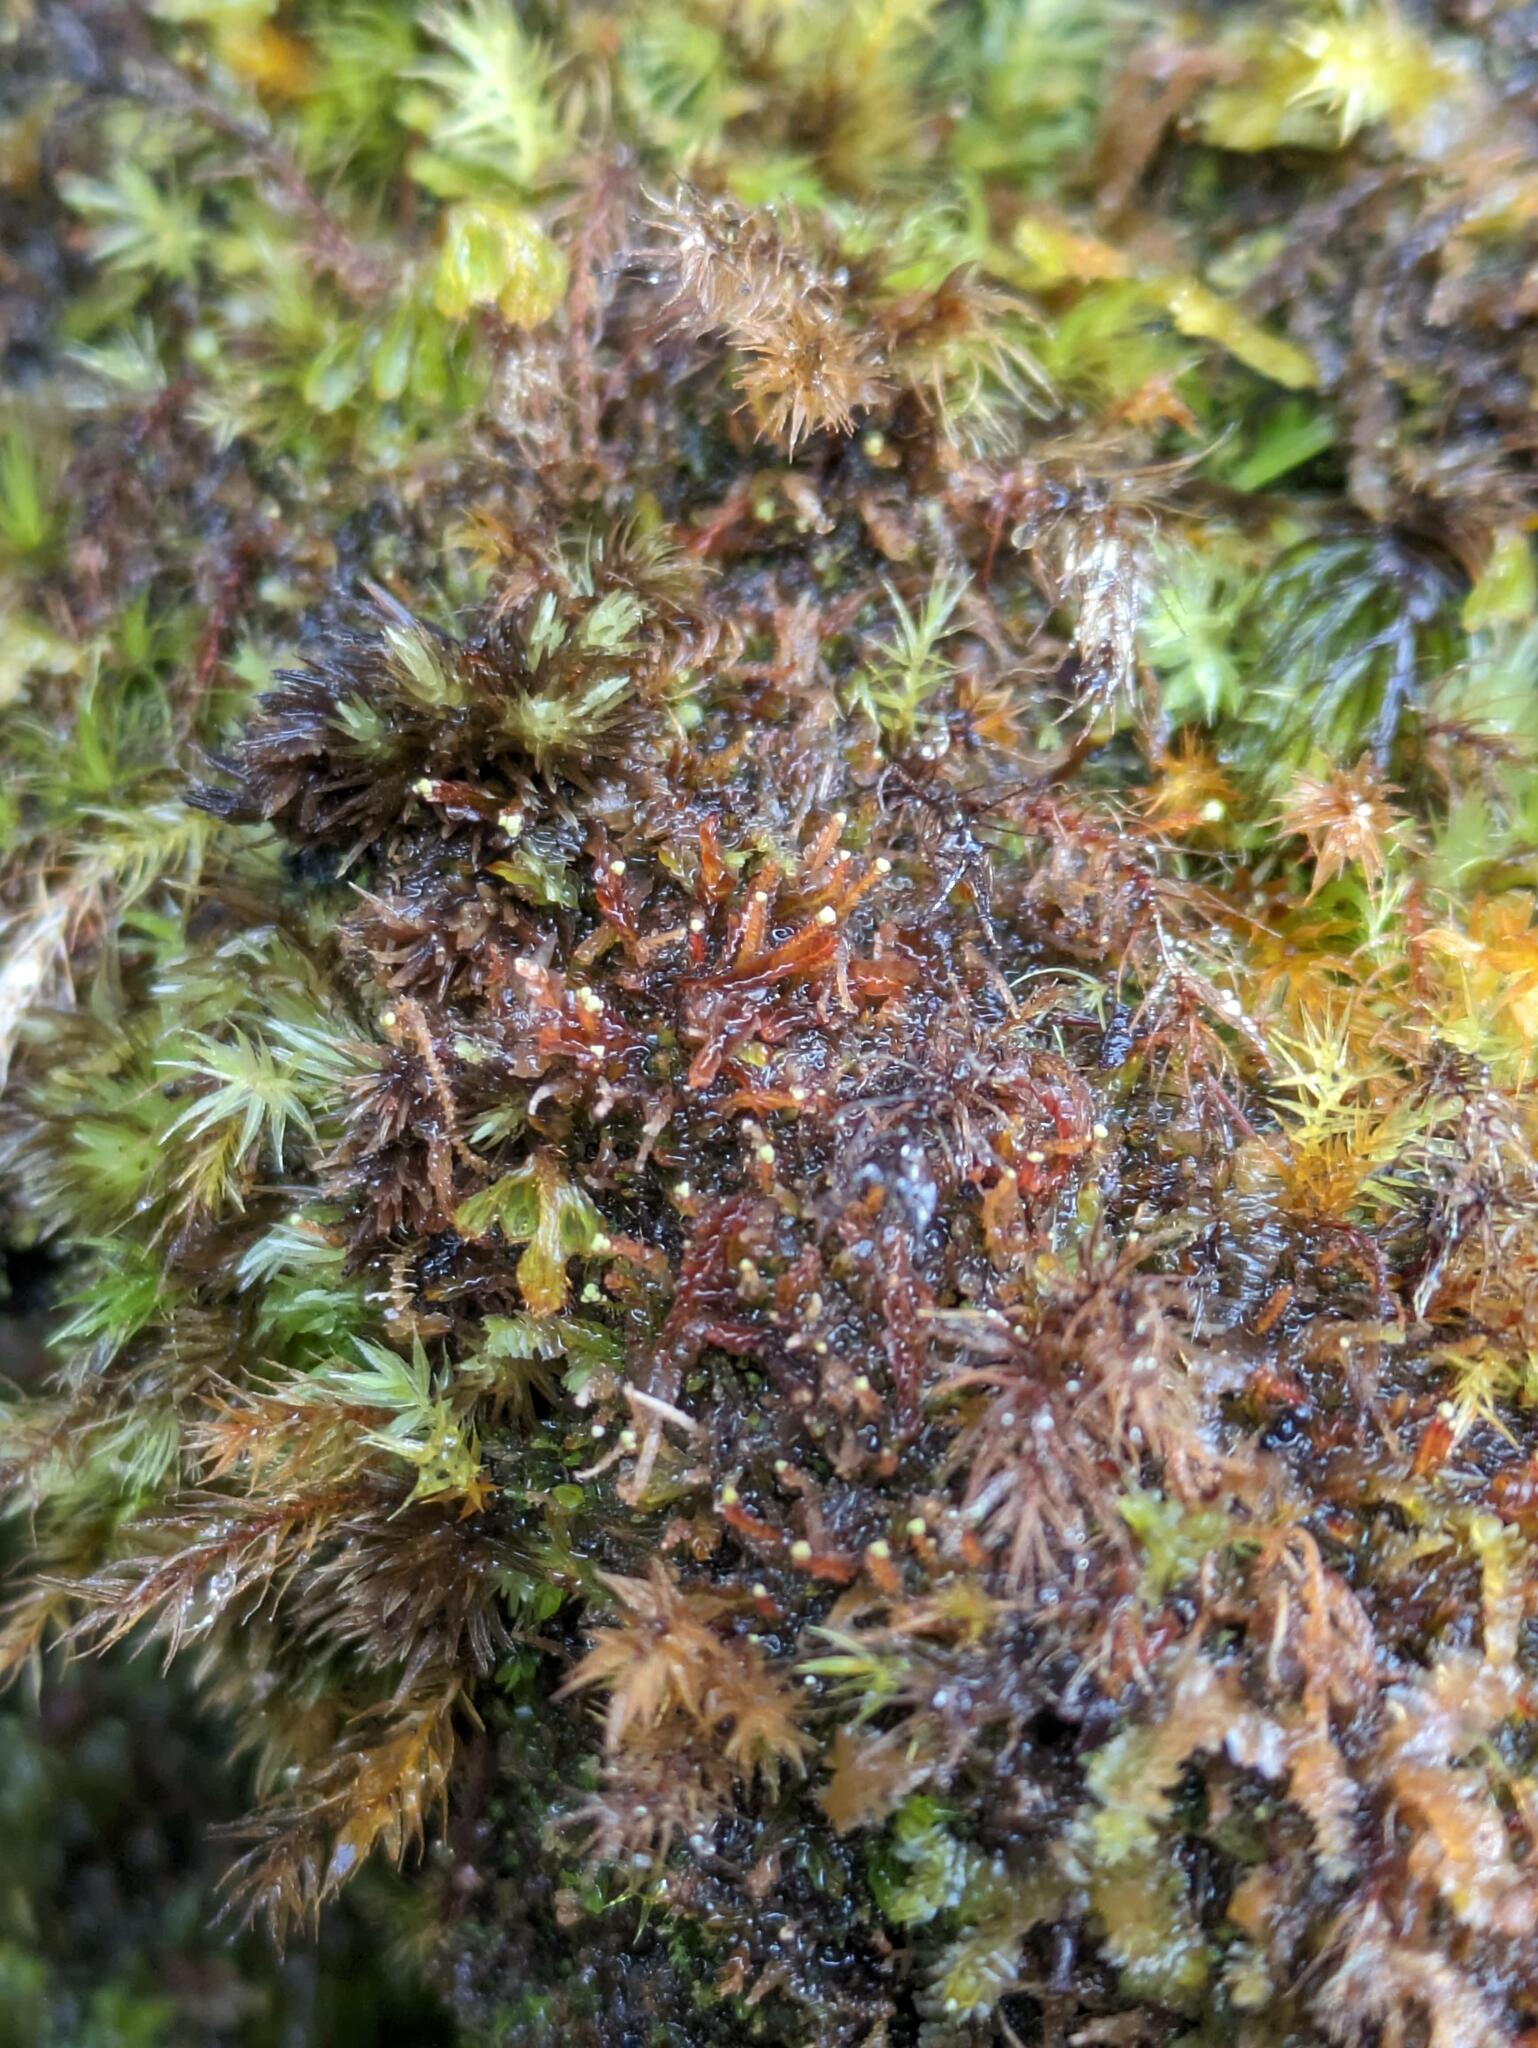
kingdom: Plantae
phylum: Marchantiophyta
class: Jungermanniopsida
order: Jungermanniales
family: Cephaloziaceae
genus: Odontoschisma
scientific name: Odontoschisma denudatum
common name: Matchstick flapwort
